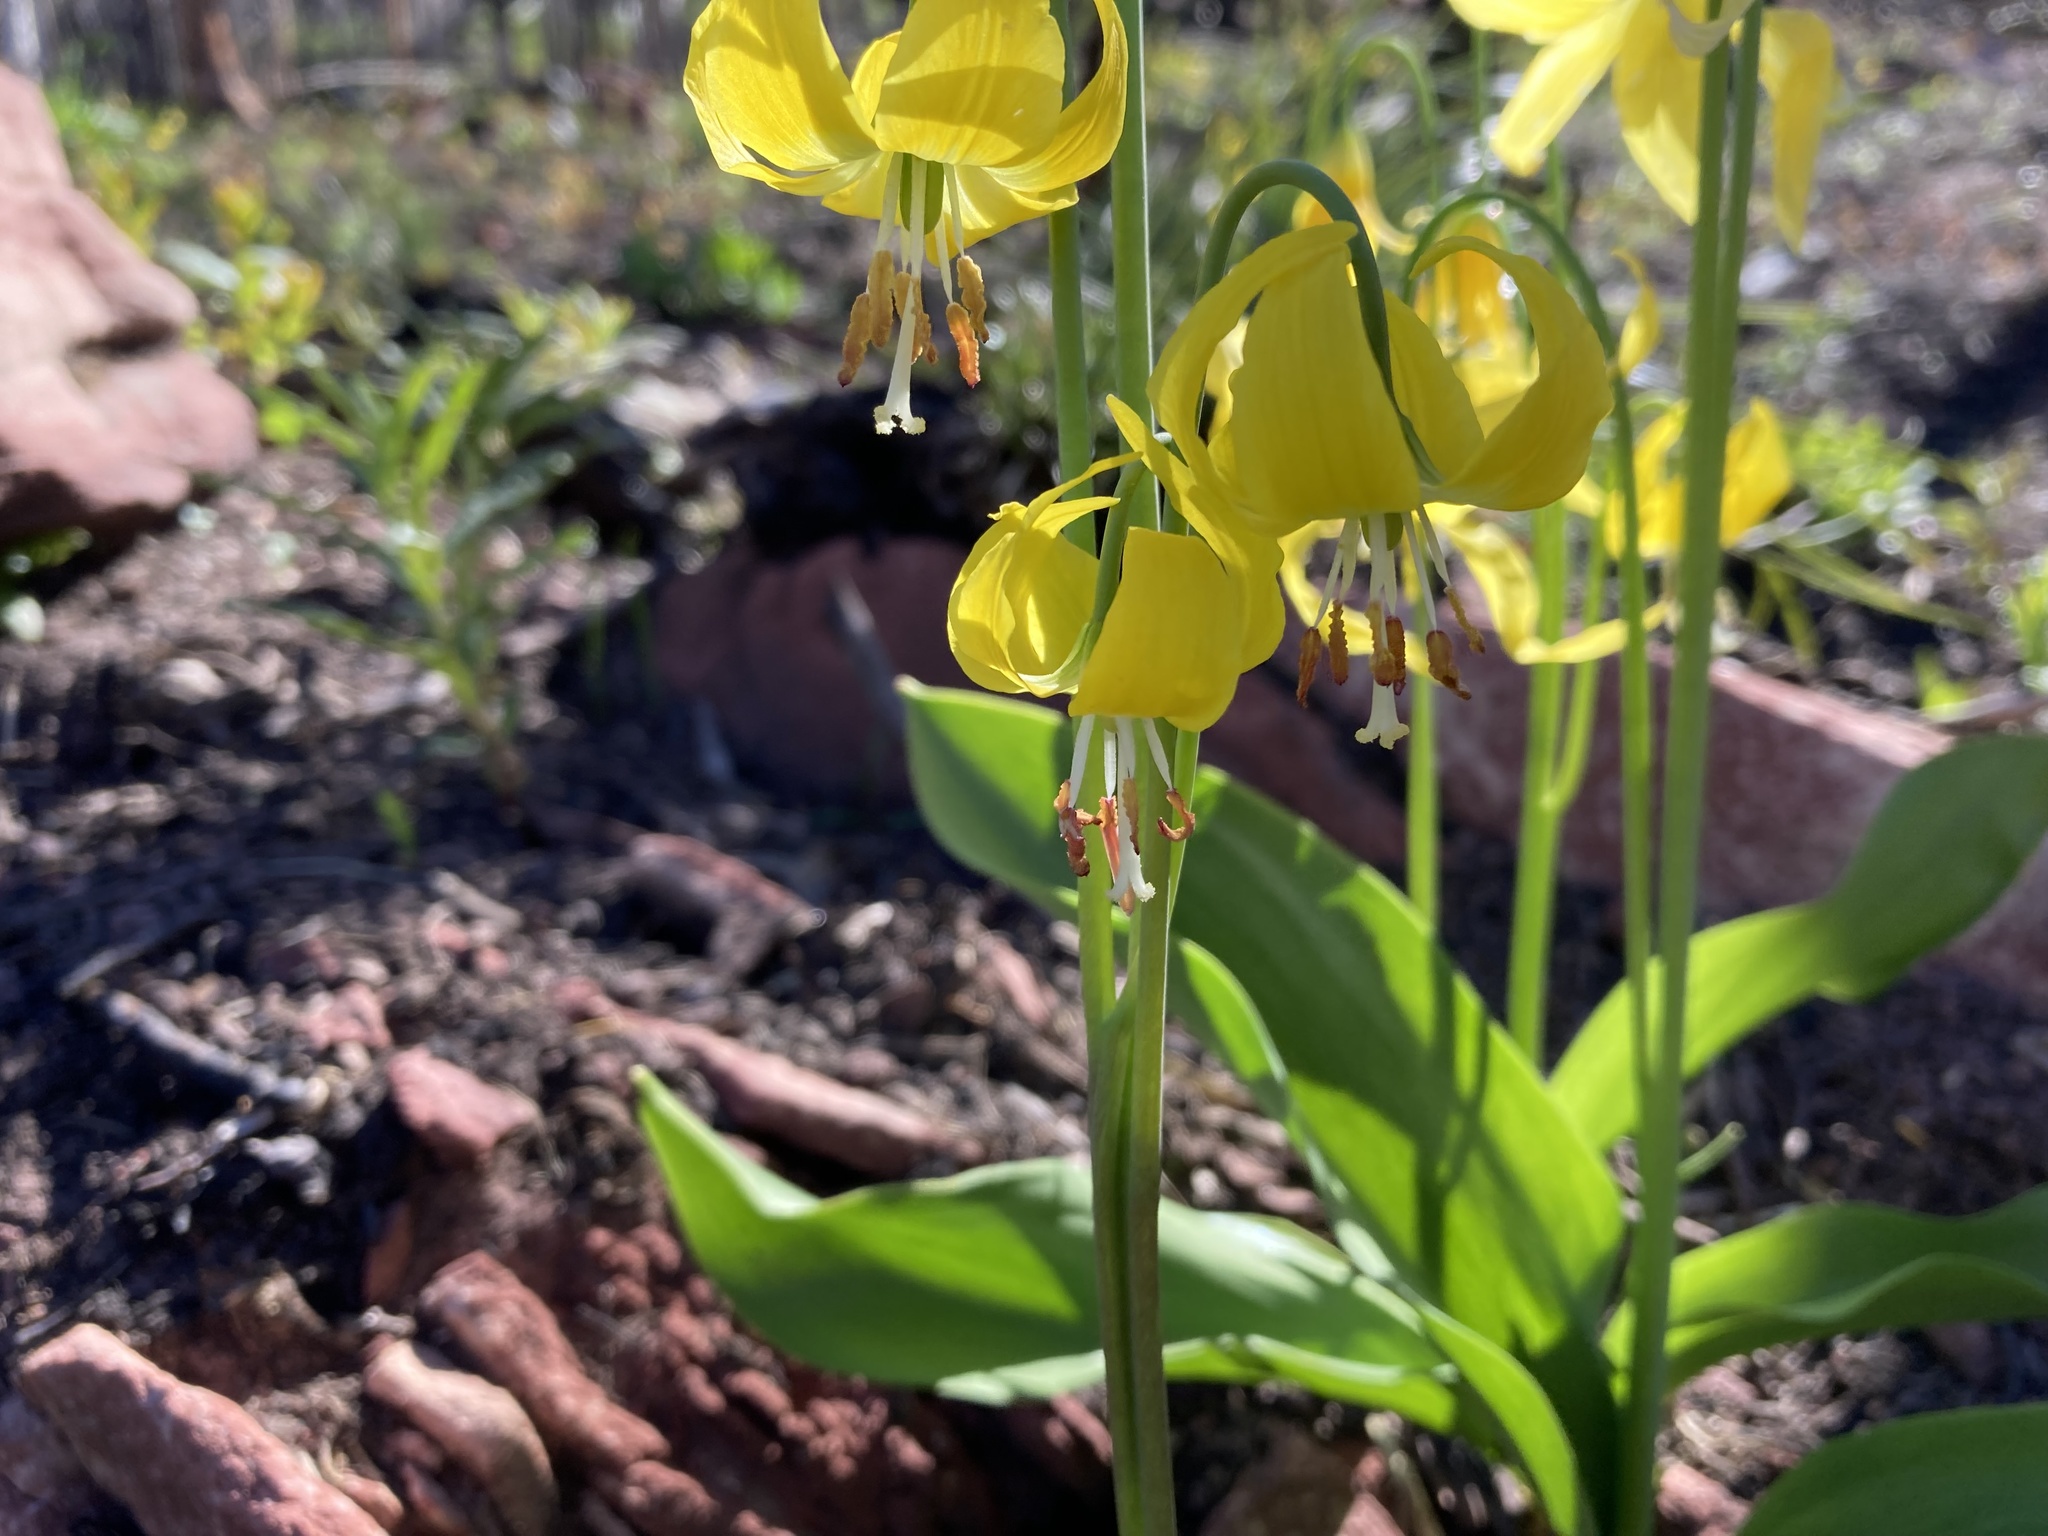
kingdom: Plantae
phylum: Tracheophyta
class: Liliopsida
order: Liliales
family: Liliaceae
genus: Erythronium
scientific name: Erythronium grandiflorum
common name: Avalanche-lily
